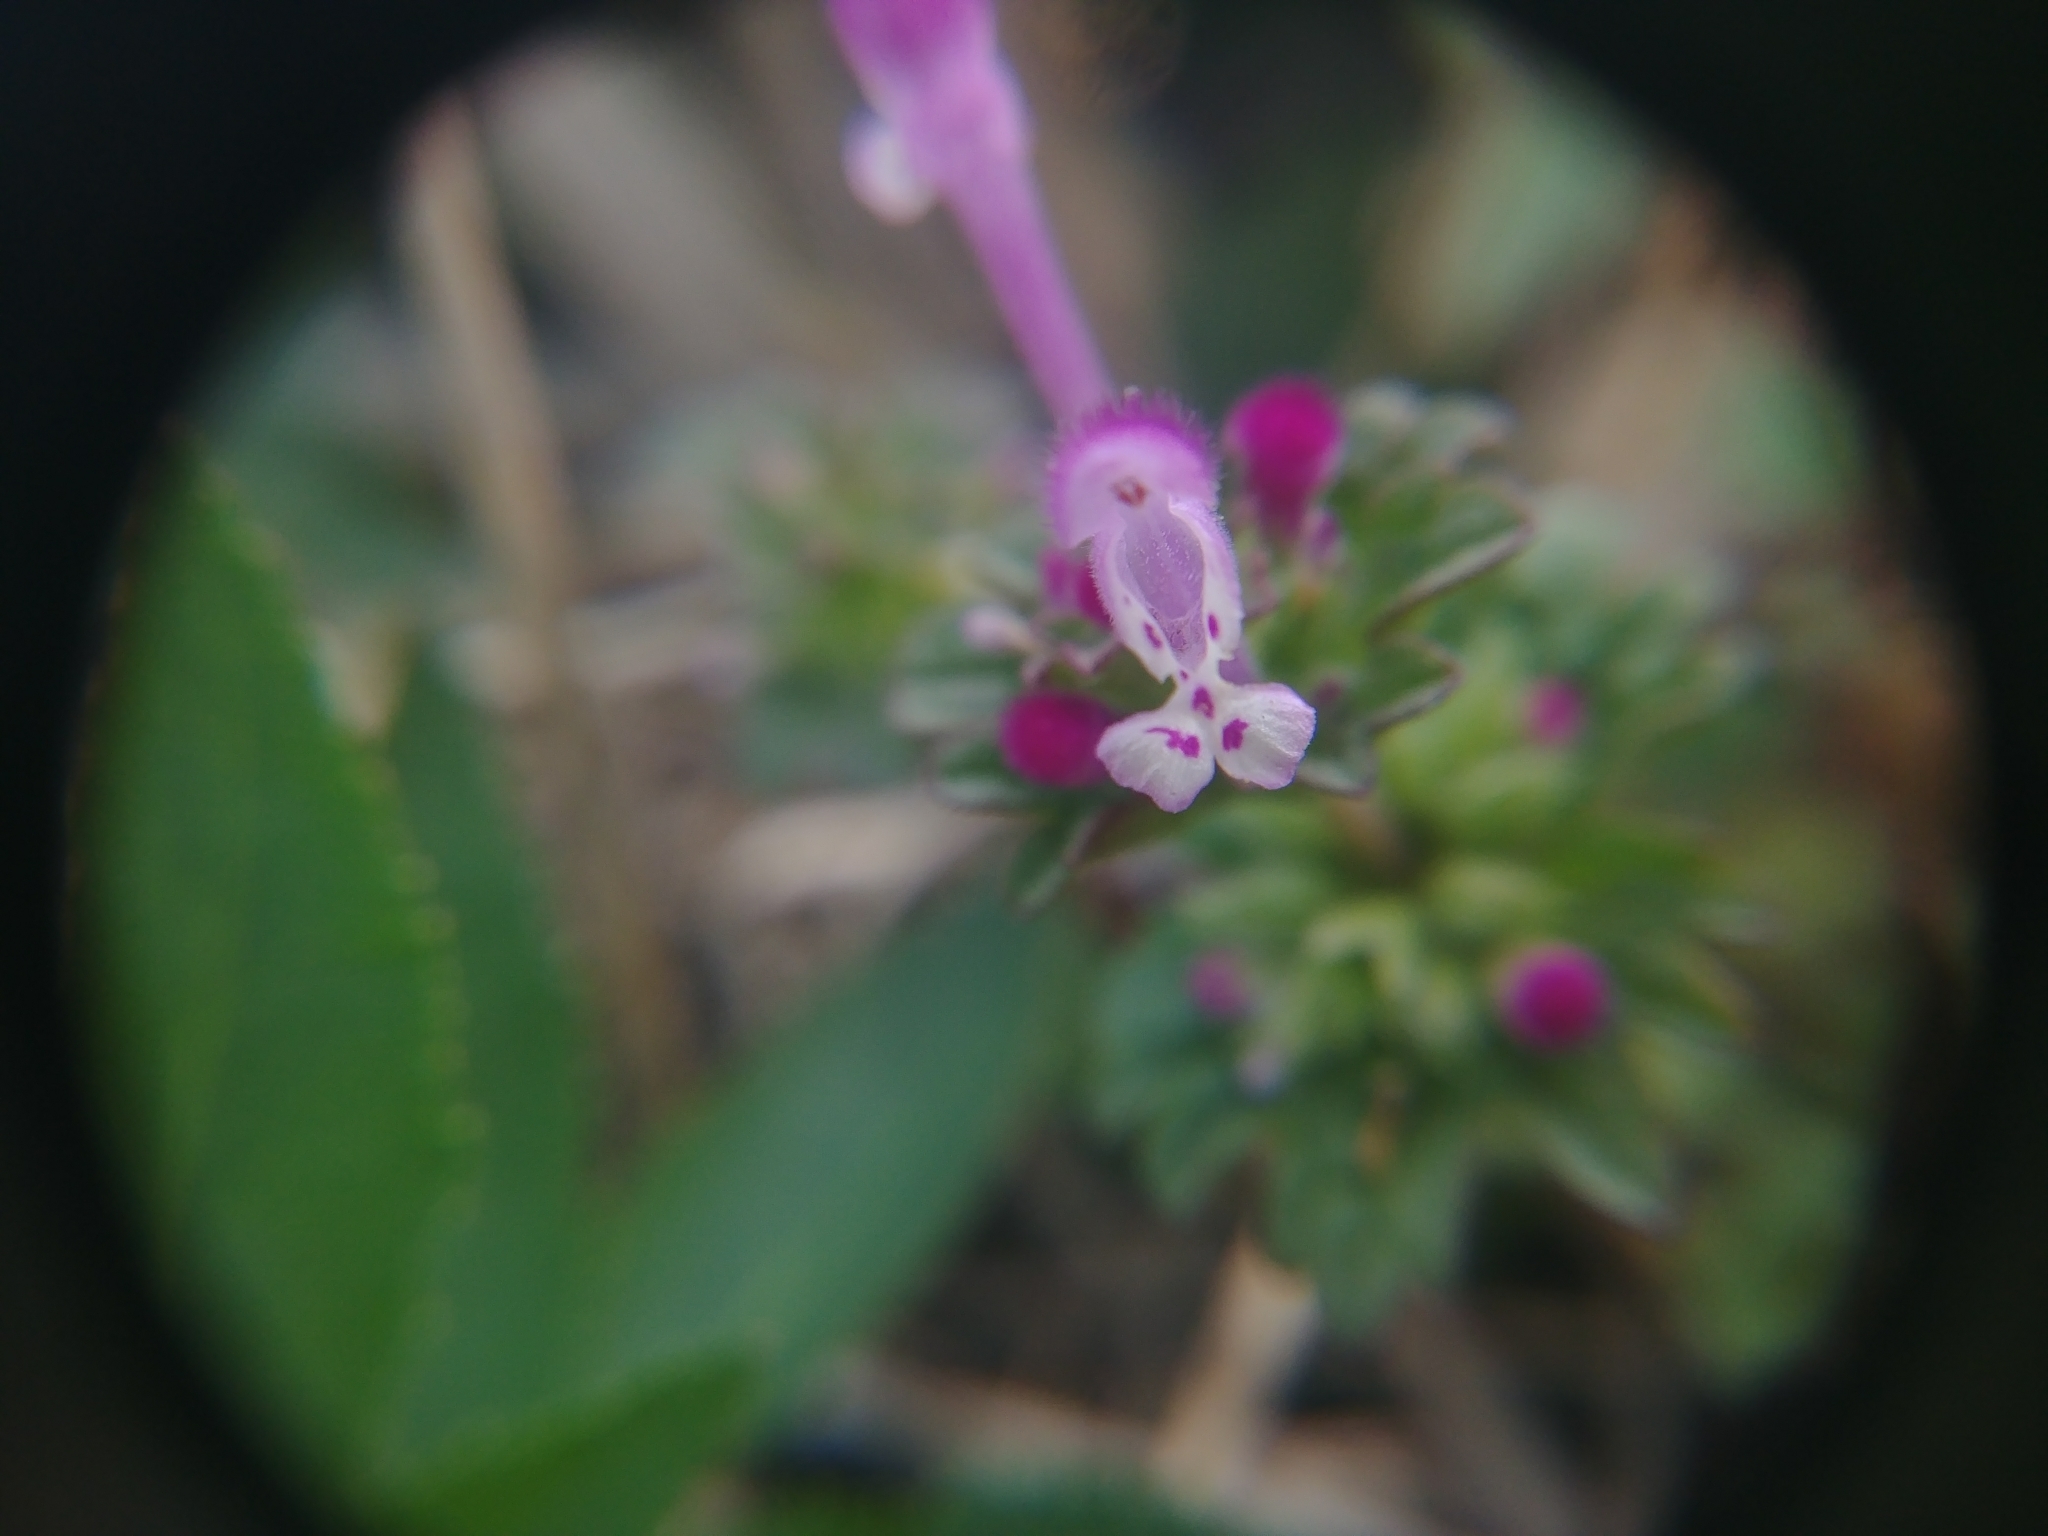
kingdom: Plantae
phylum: Tracheophyta
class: Magnoliopsida
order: Lamiales
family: Lamiaceae
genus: Lamium
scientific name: Lamium amplexicaule
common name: Henbit dead-nettle
